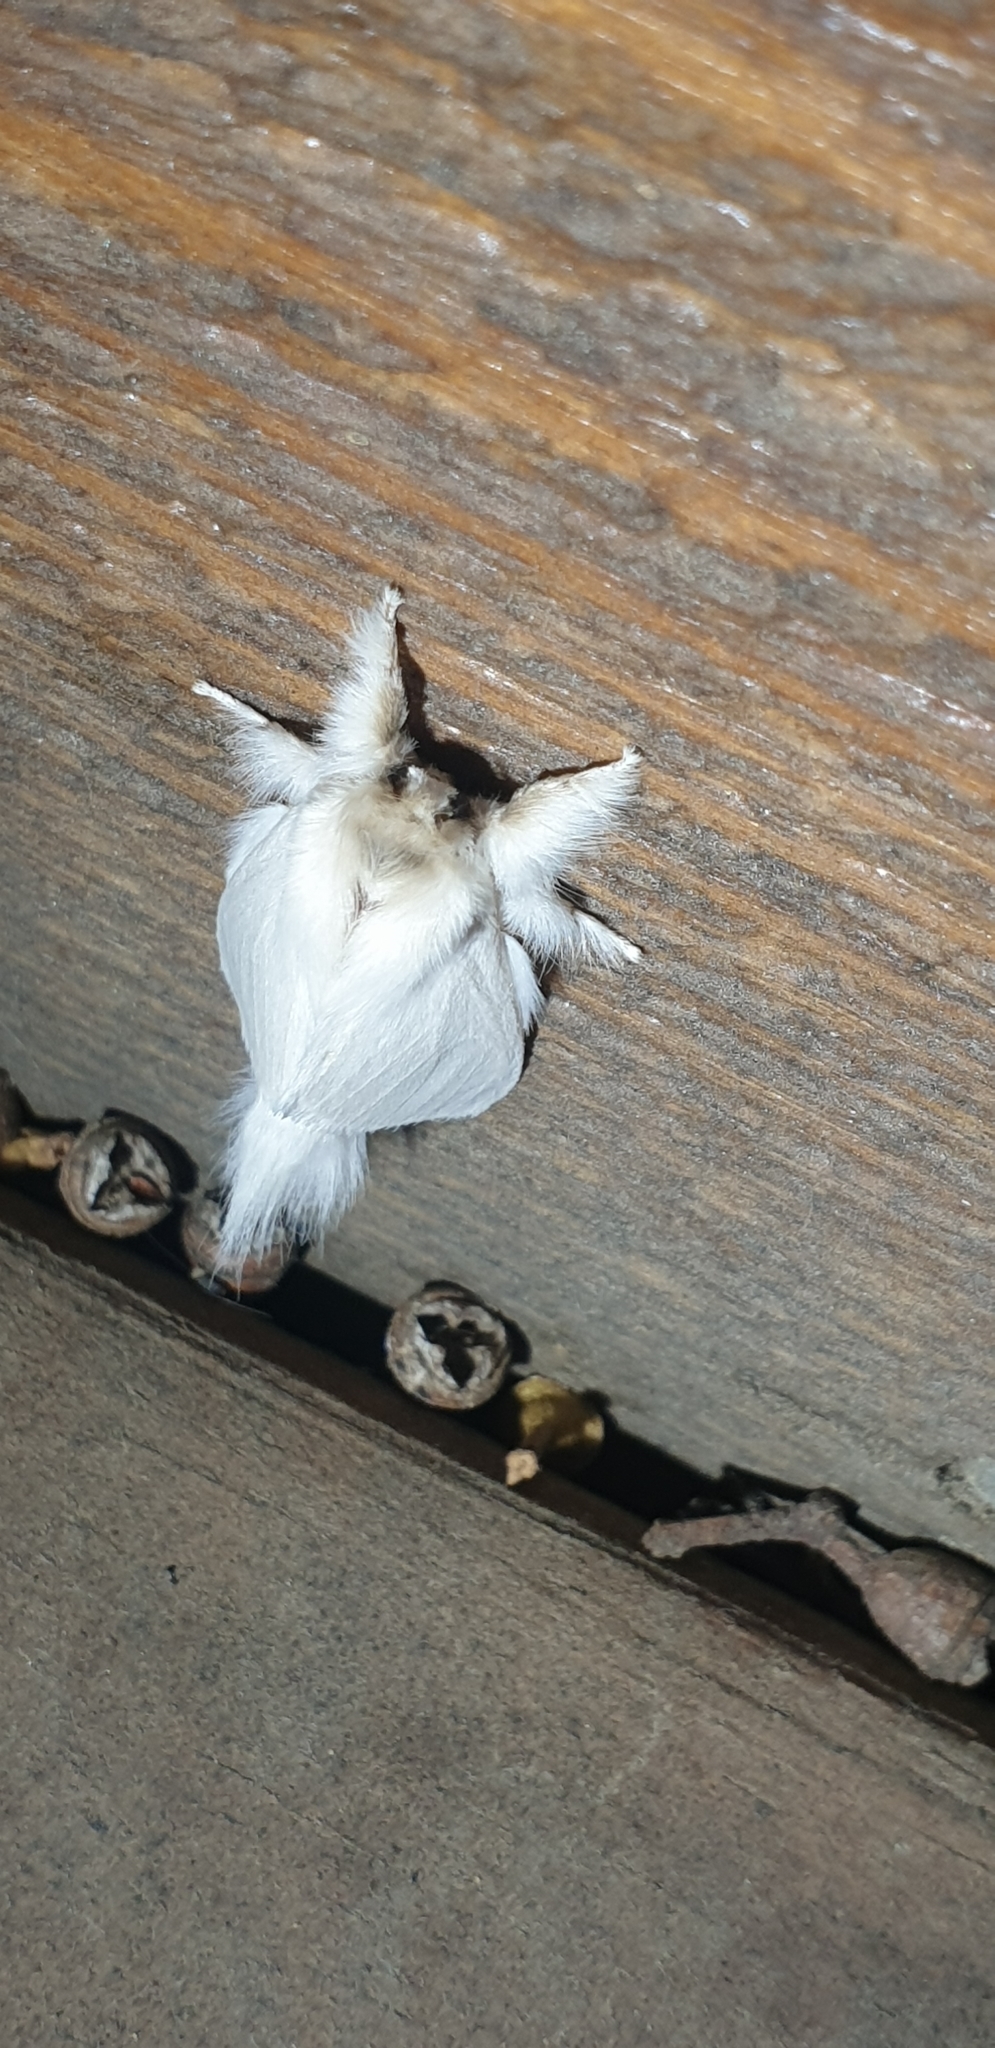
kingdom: Animalia
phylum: Arthropoda
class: Insecta
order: Lepidoptera
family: Notodontidae
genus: Trichiocercus
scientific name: Trichiocercus sparshalli
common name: Long-tailed satin
